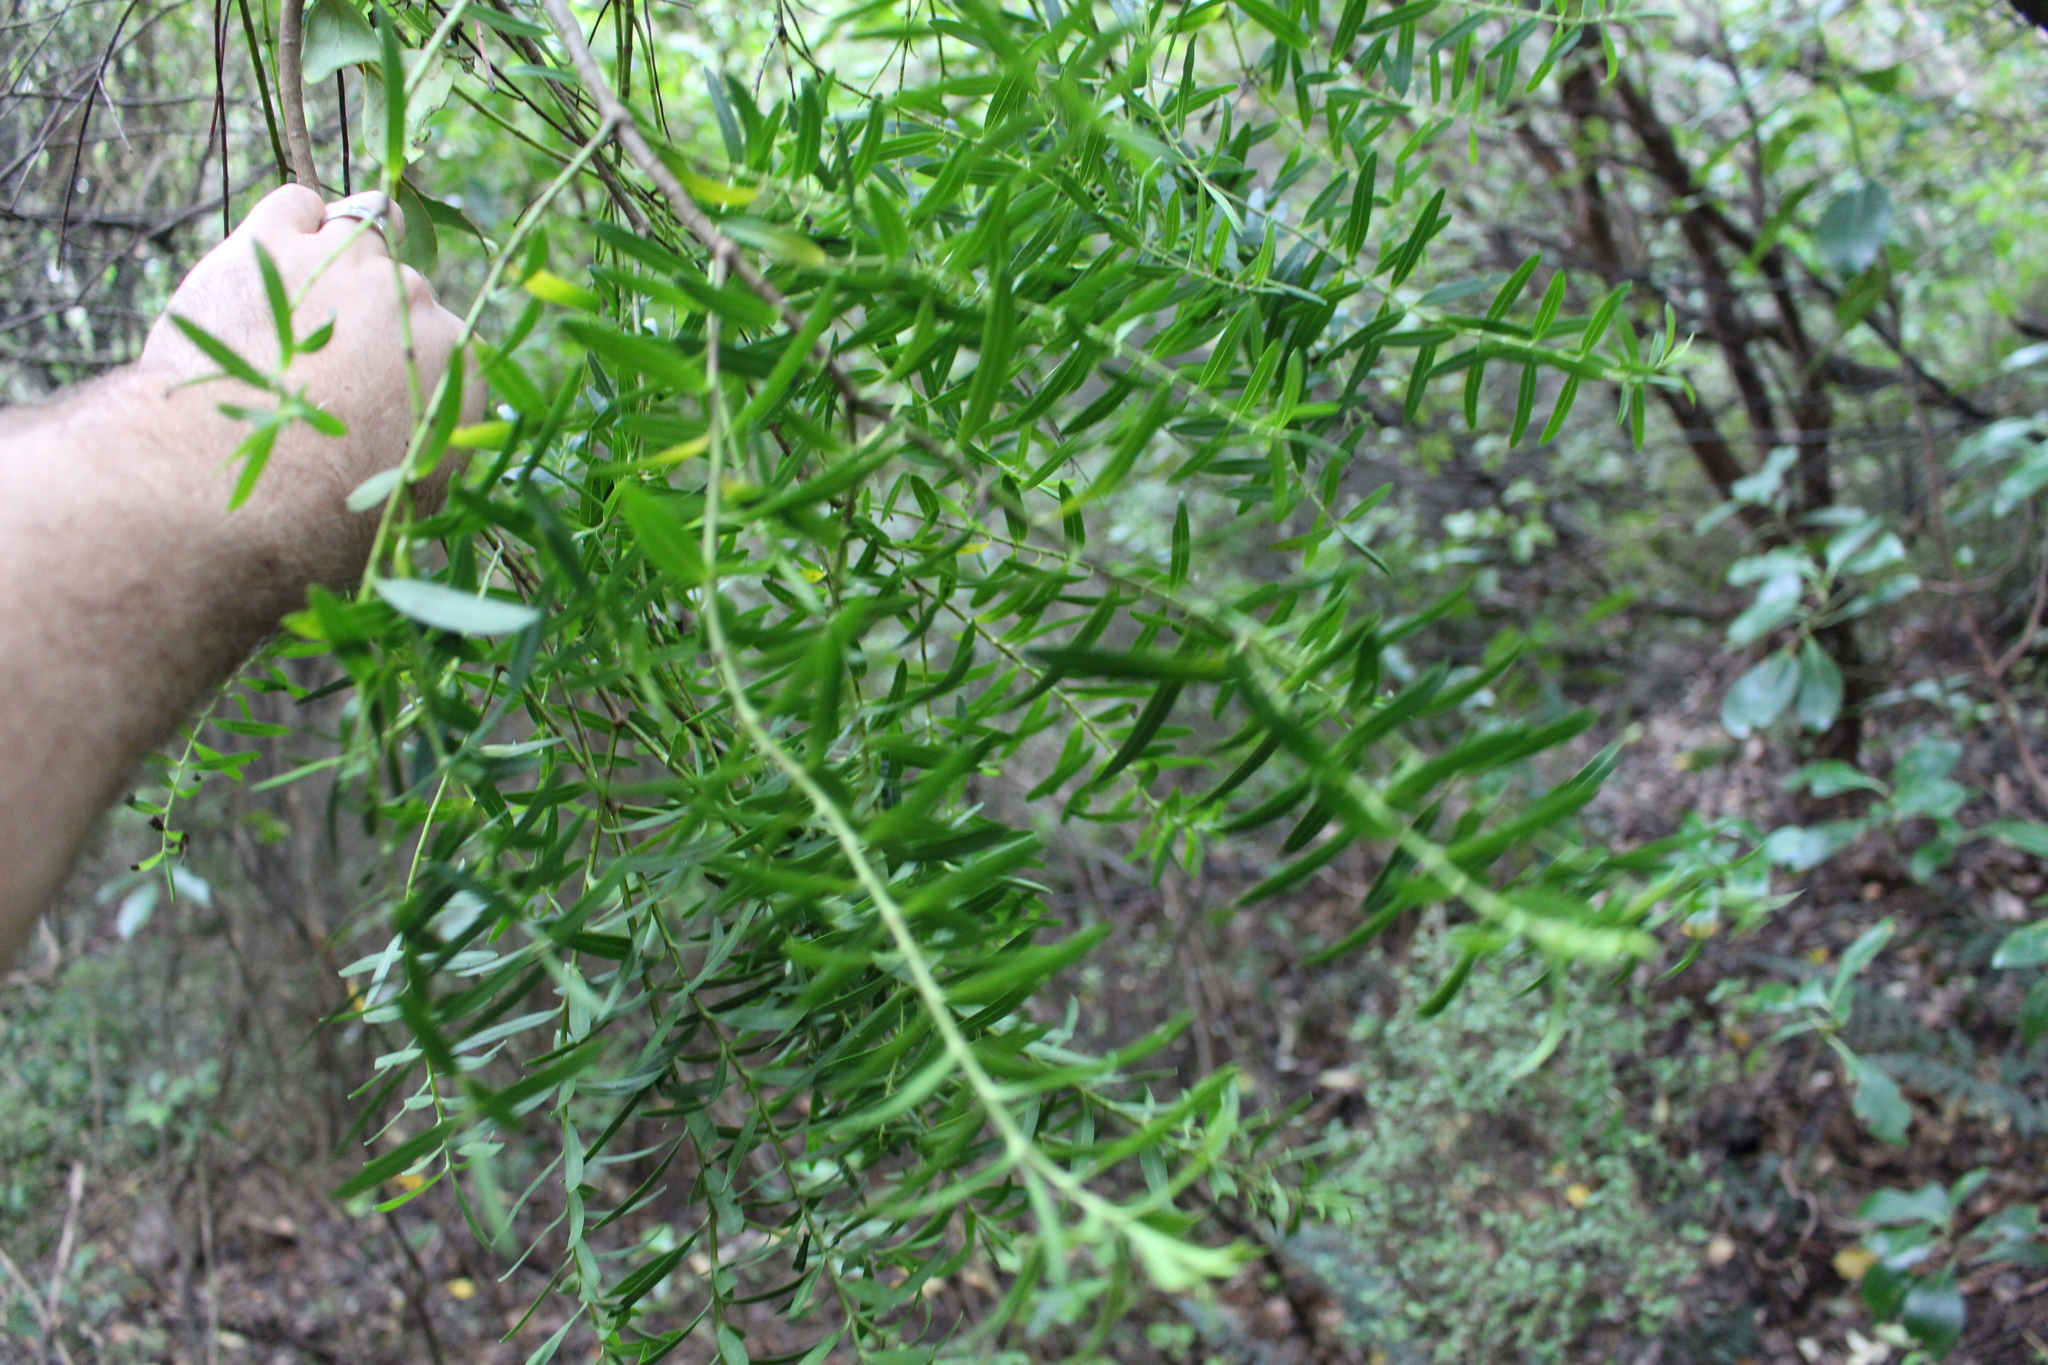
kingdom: Plantae
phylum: Tracheophyta
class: Magnoliopsida
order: Lamiales
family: Plantaginaceae
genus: Veronica
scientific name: Veronica strictissima
